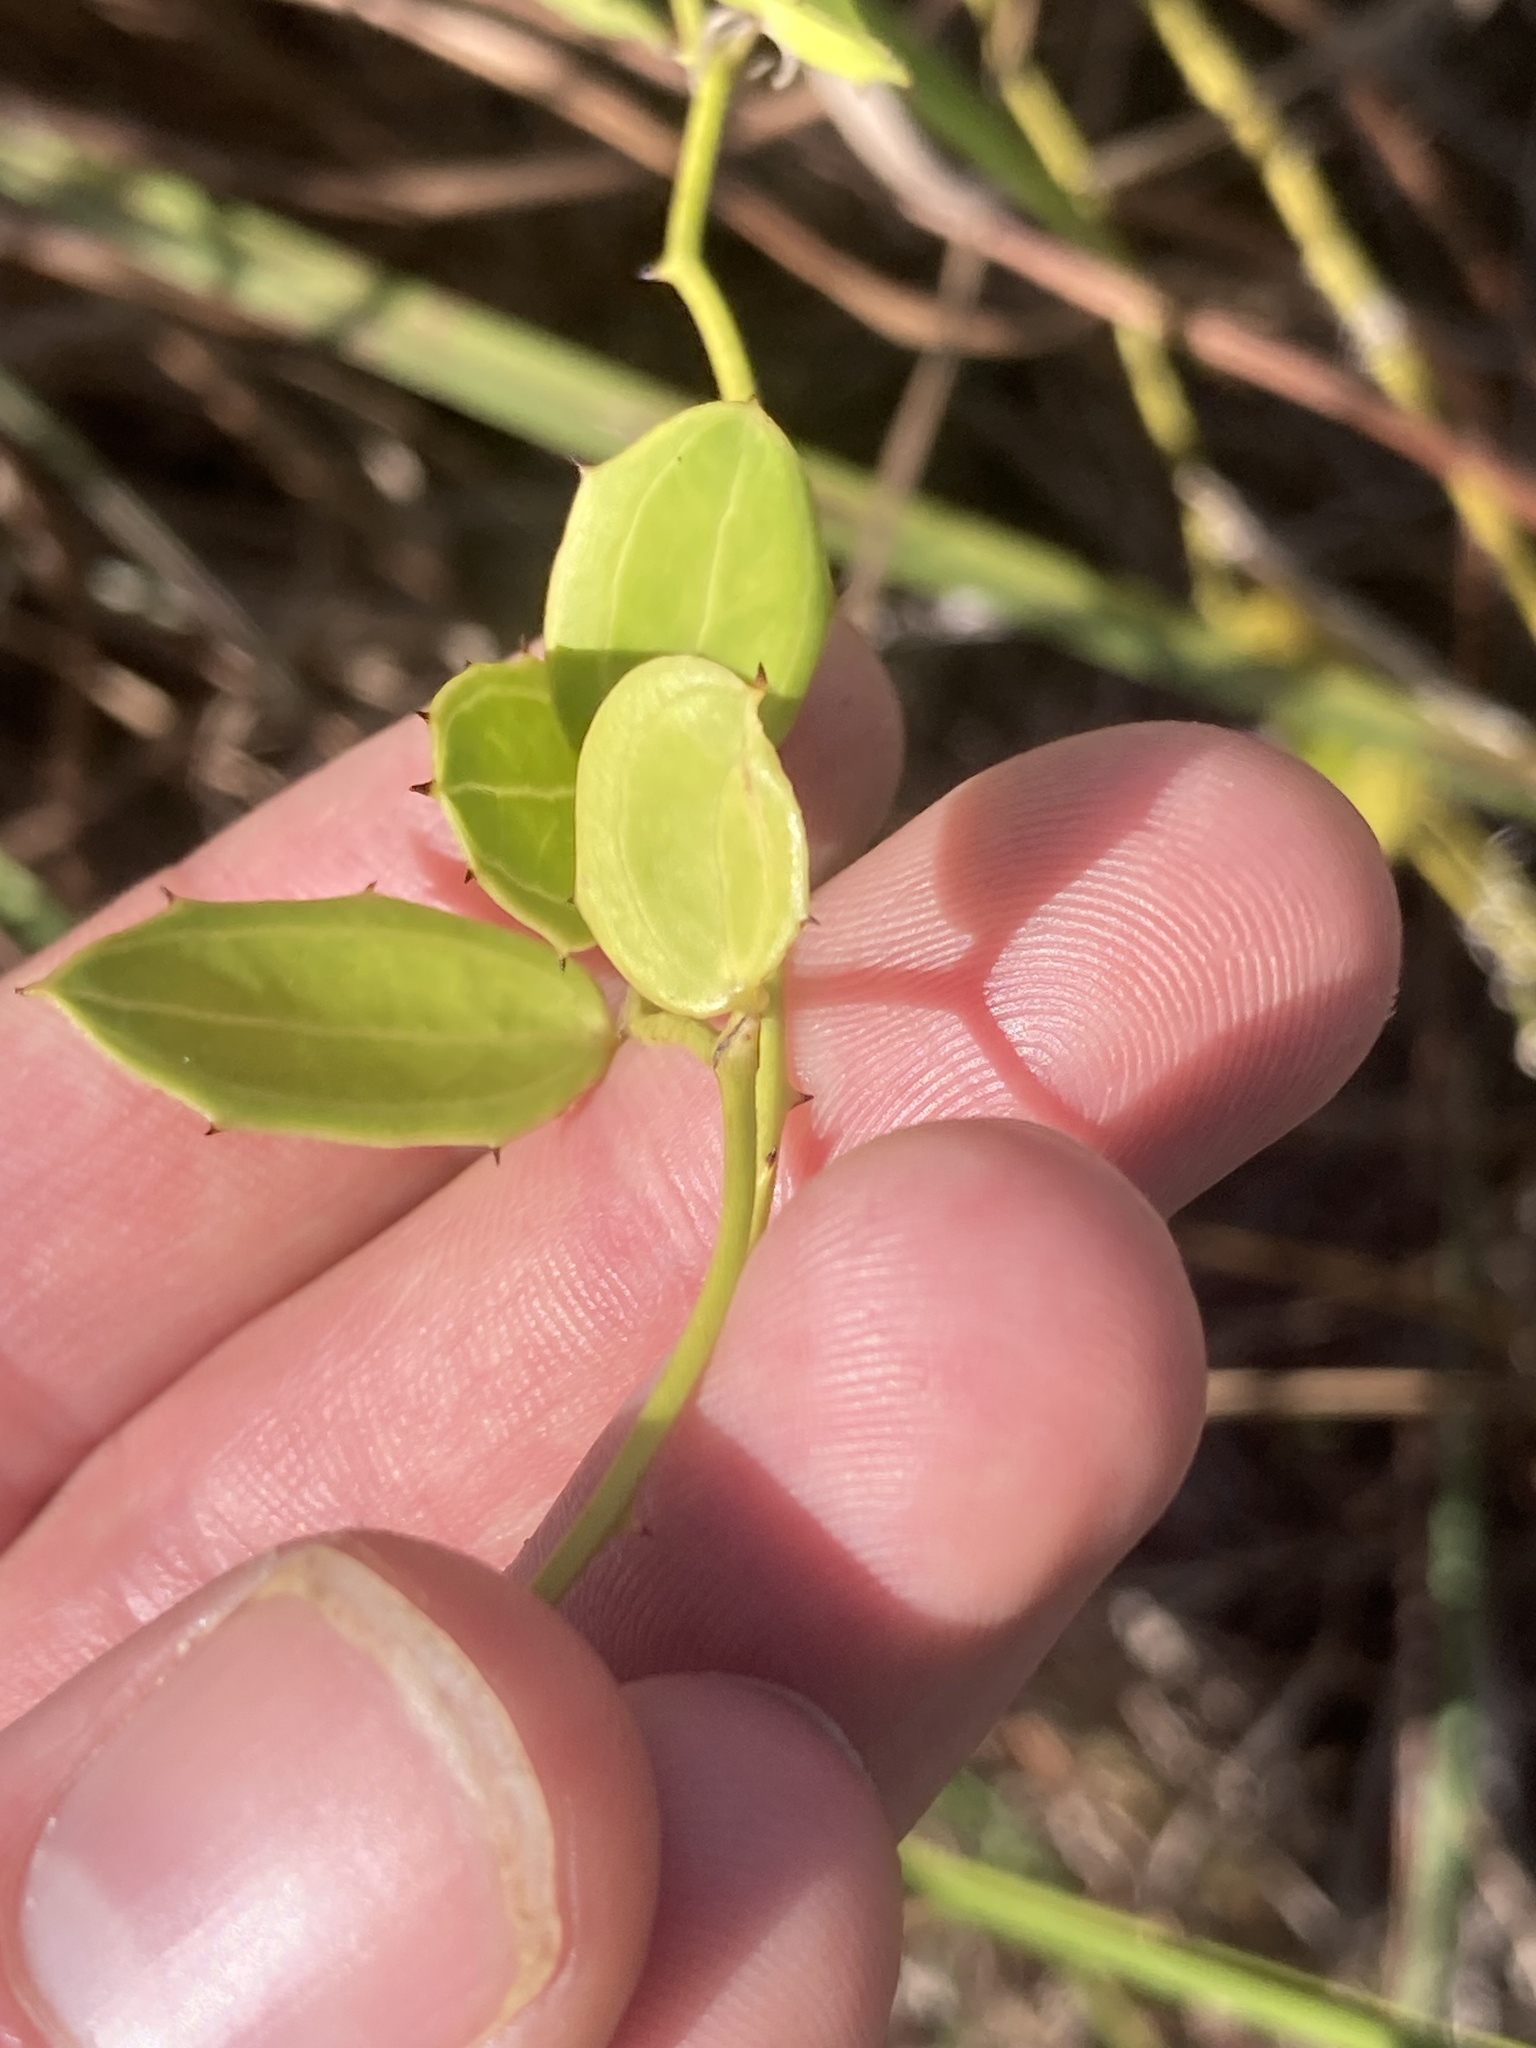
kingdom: Plantae
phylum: Tracheophyta
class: Liliopsida
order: Liliales
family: Smilacaceae
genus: Smilax
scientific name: Smilax havanensis
